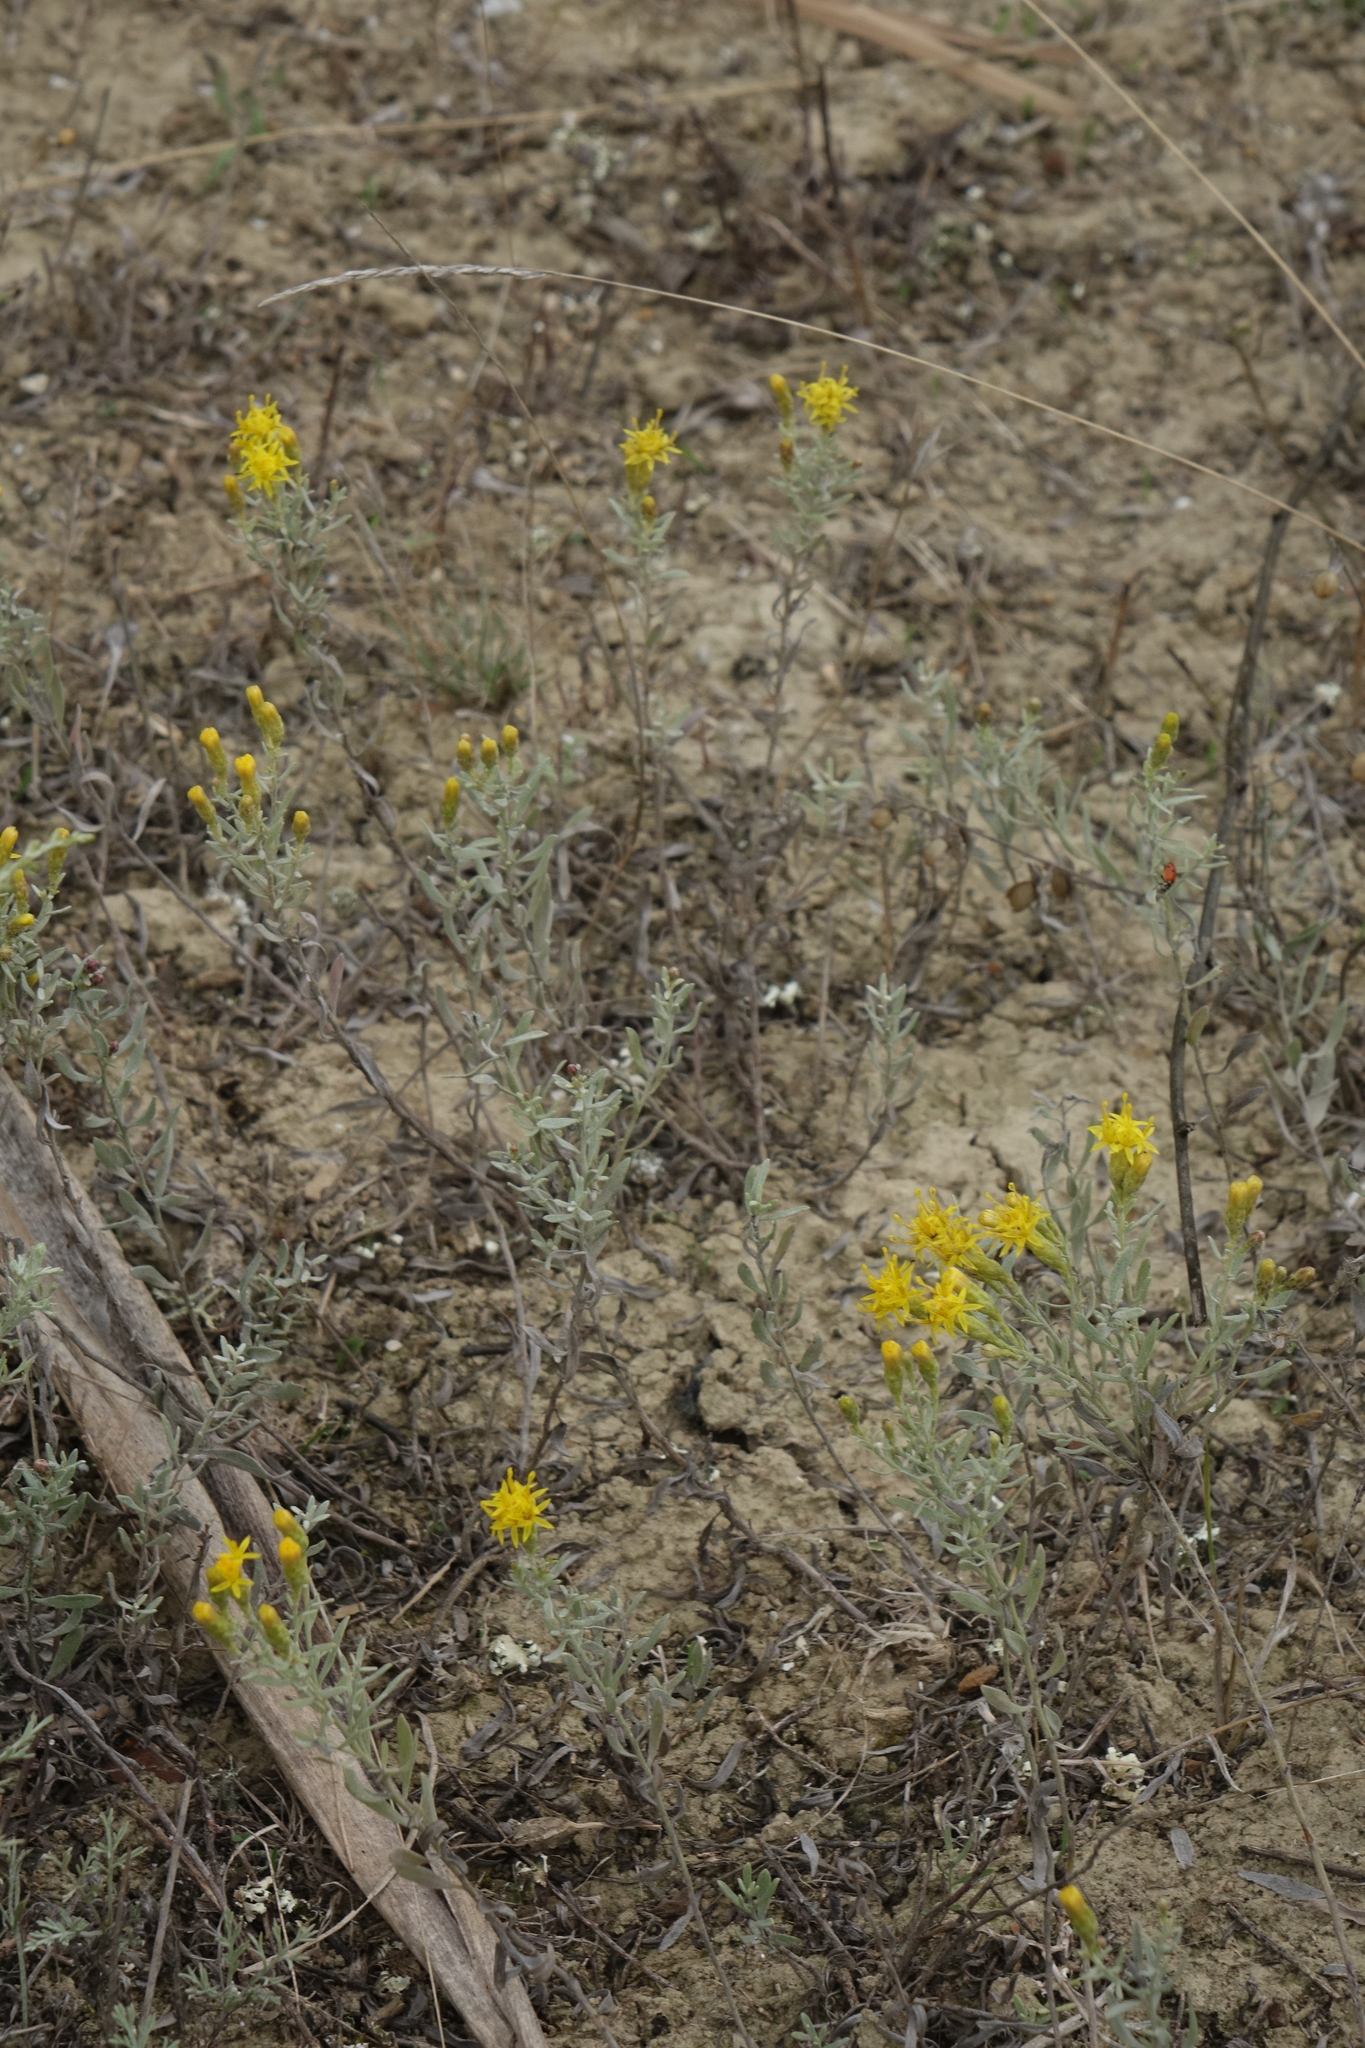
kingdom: Plantae
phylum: Tracheophyta
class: Magnoliopsida
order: Asterales
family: Asteraceae
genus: Galatella
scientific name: Galatella villosa
